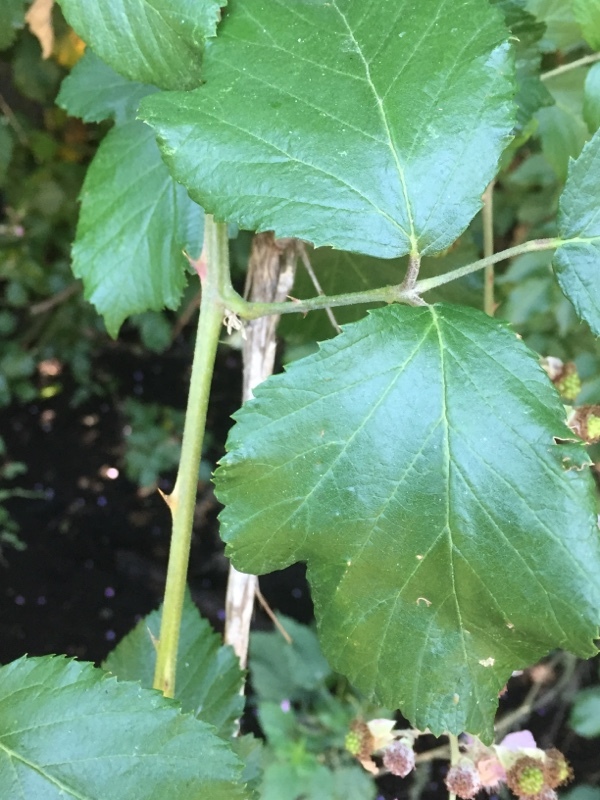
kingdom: Plantae
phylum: Tracheophyta
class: Magnoliopsida
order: Rosales
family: Rosaceae
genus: Rubus
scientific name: Rubus ulmifolius
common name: Elmleaf blackberry
